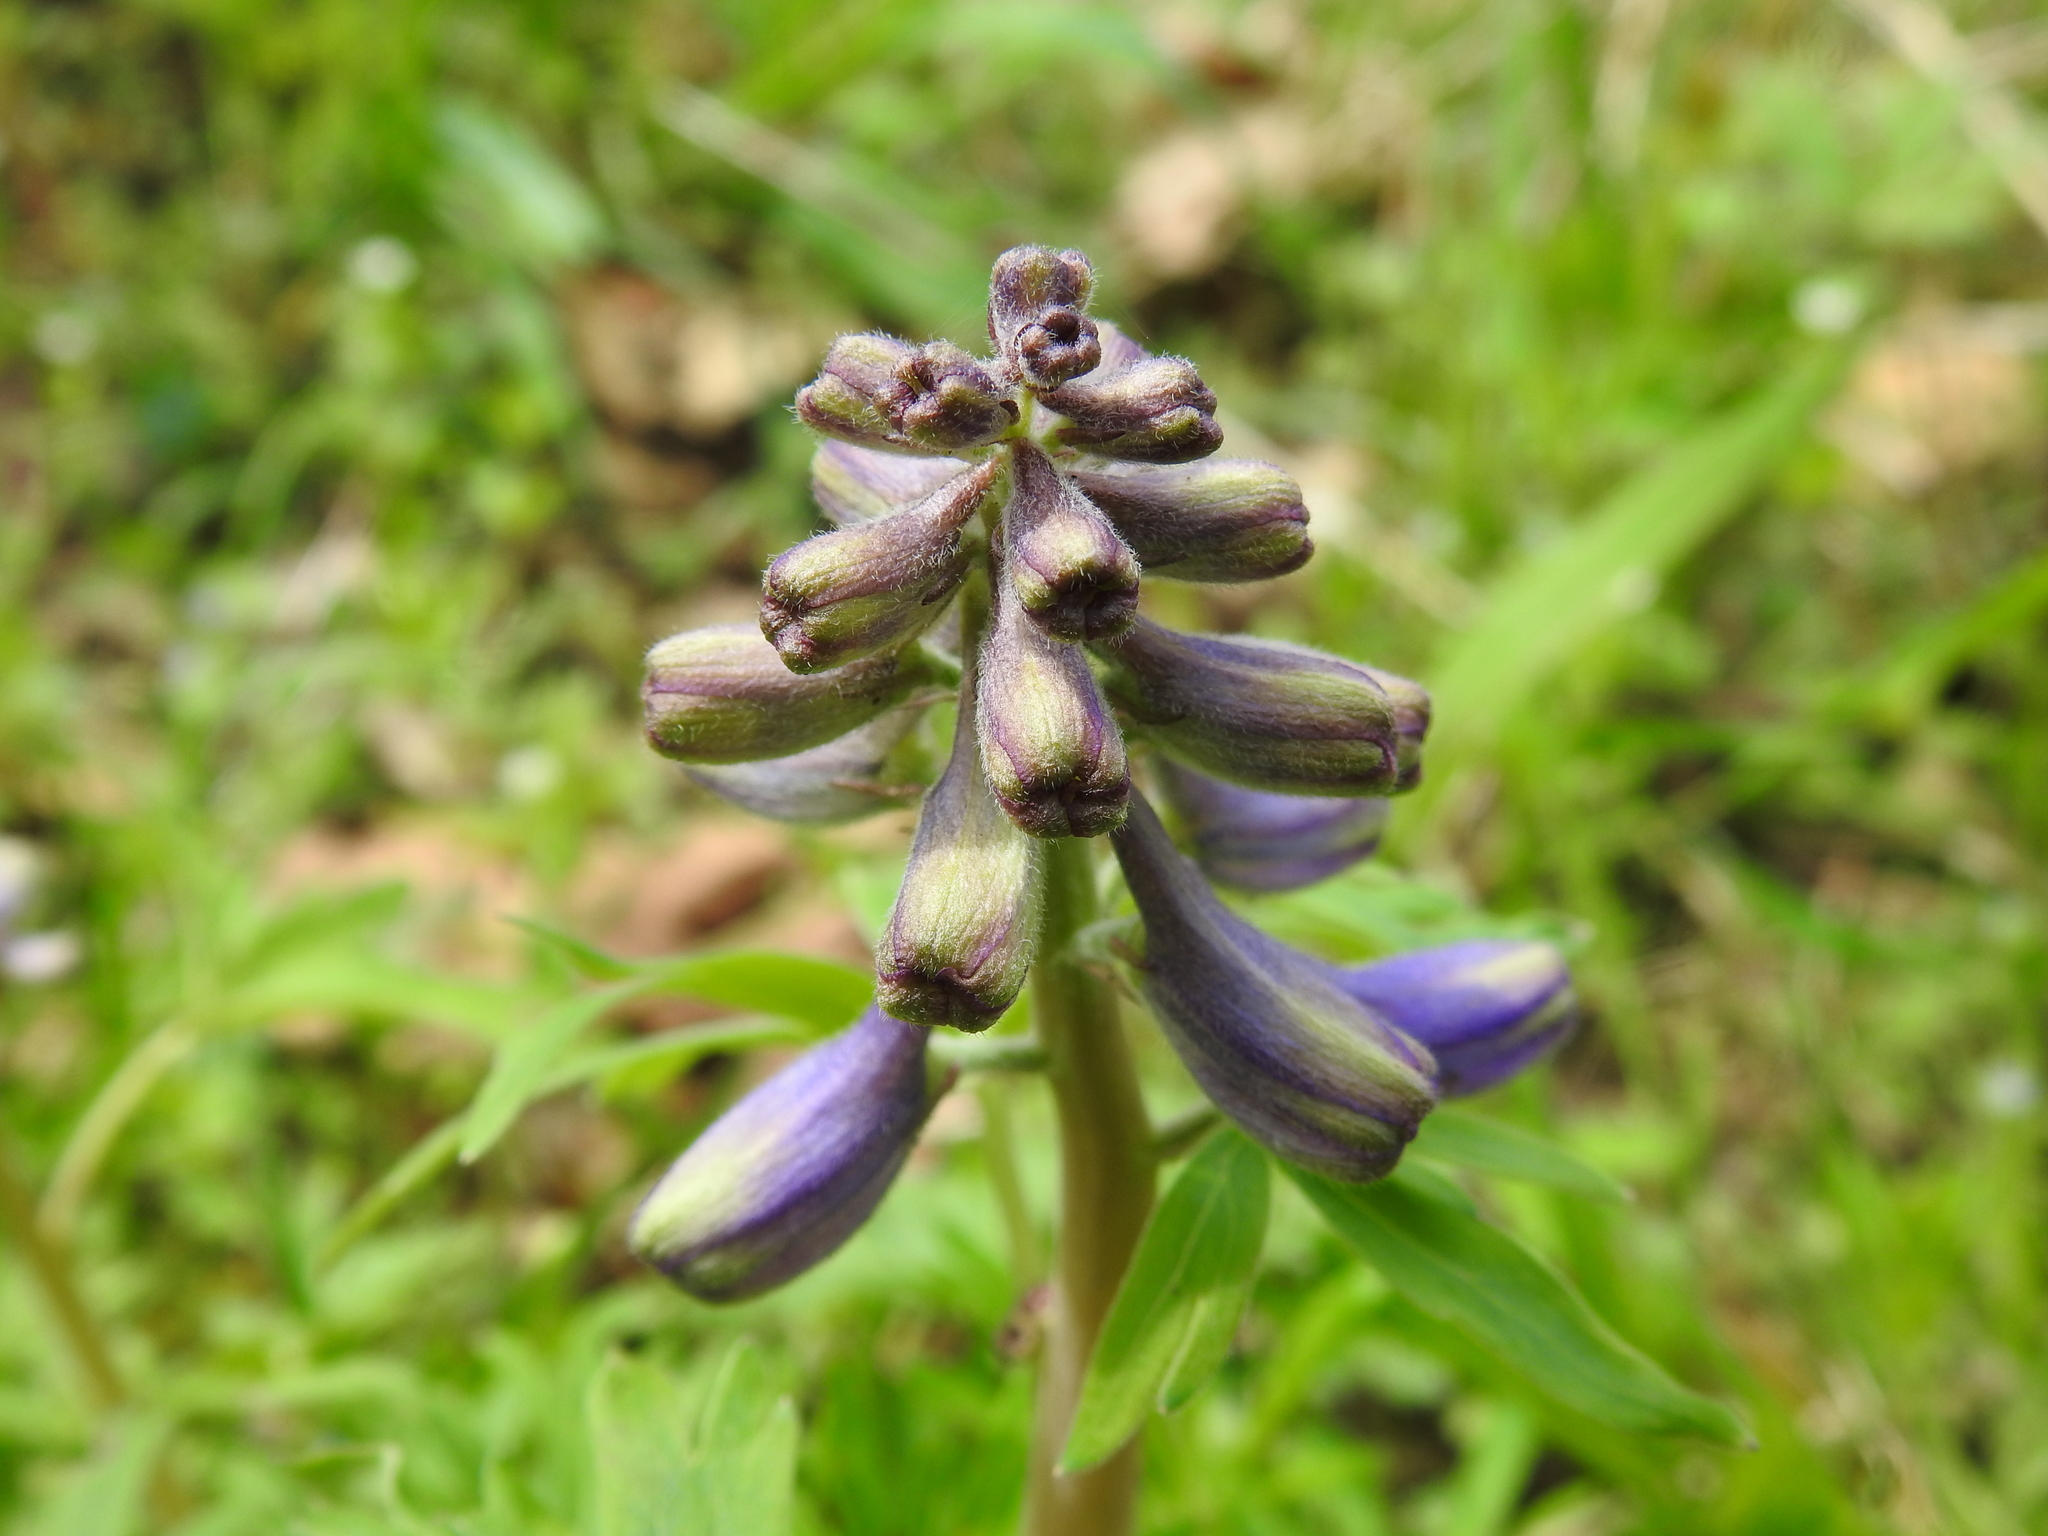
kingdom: Plantae
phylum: Tracheophyta
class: Magnoliopsida
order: Ranunculales
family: Ranunculaceae
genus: Delphinium
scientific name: Delphinium tricorne
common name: Dwarf larkspur
